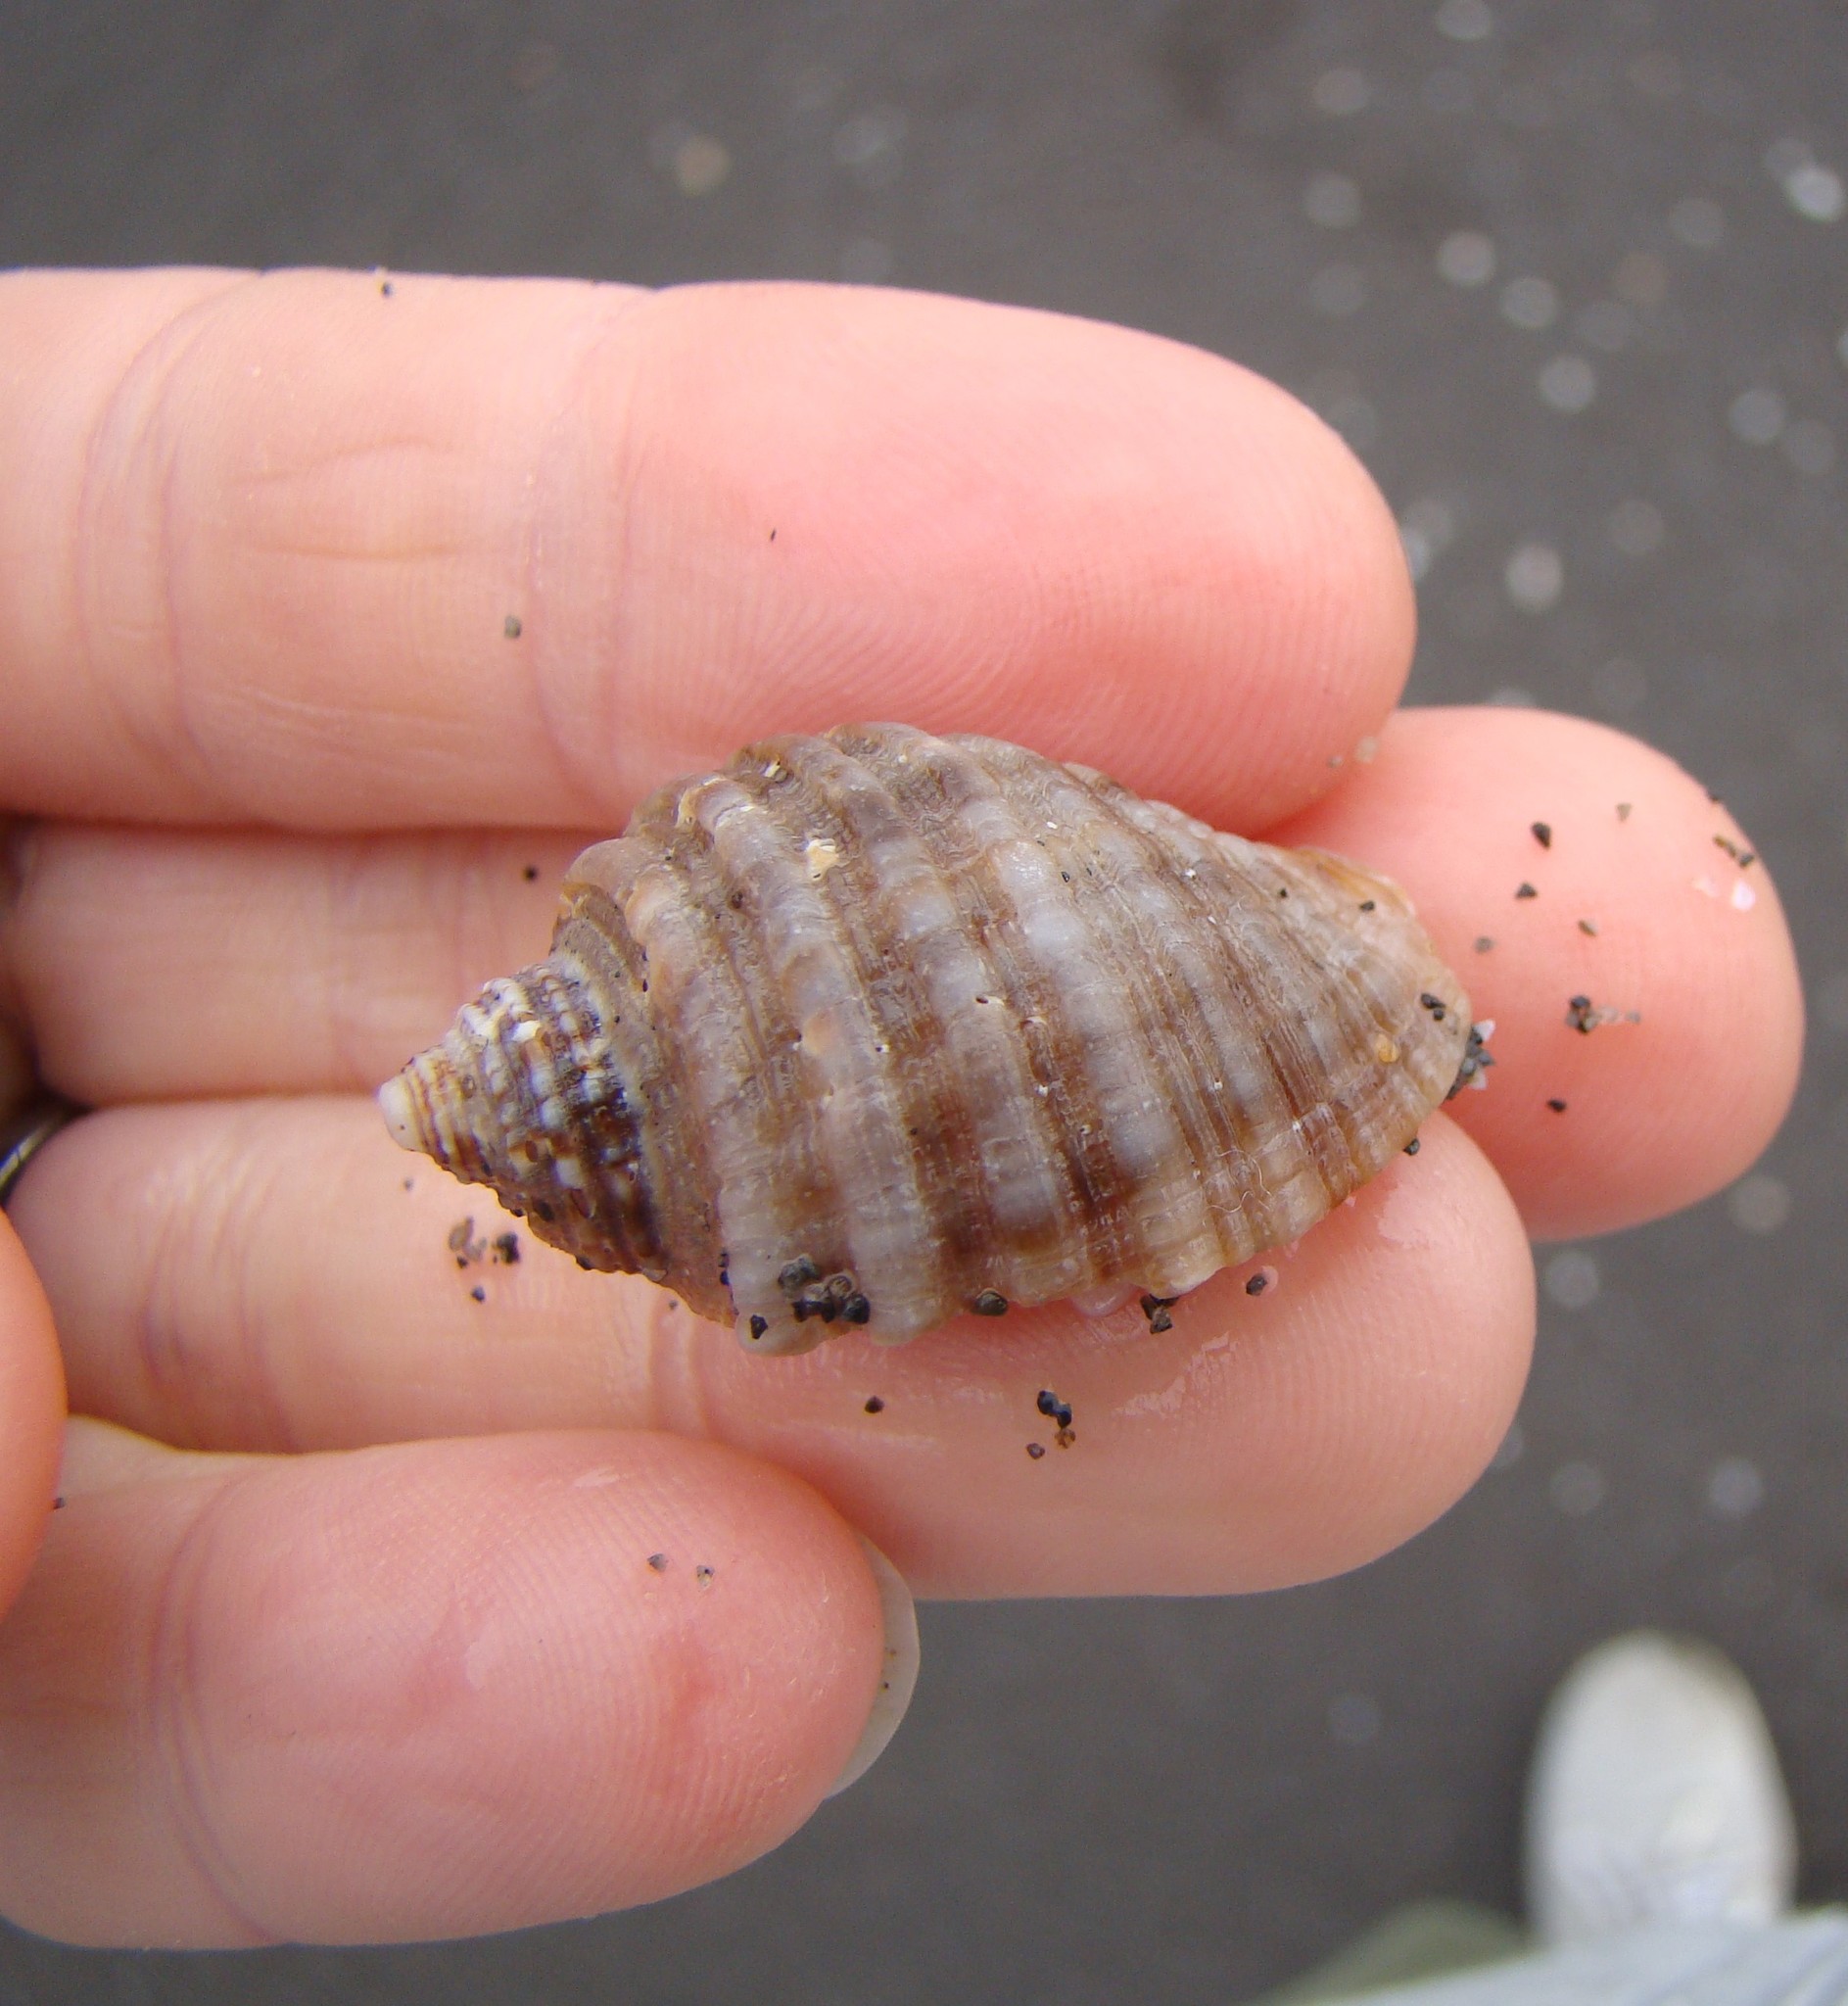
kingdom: Animalia
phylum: Mollusca
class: Gastropoda
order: Neogastropoda
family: Muricidae
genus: Dicathais
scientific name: Dicathais orbita
